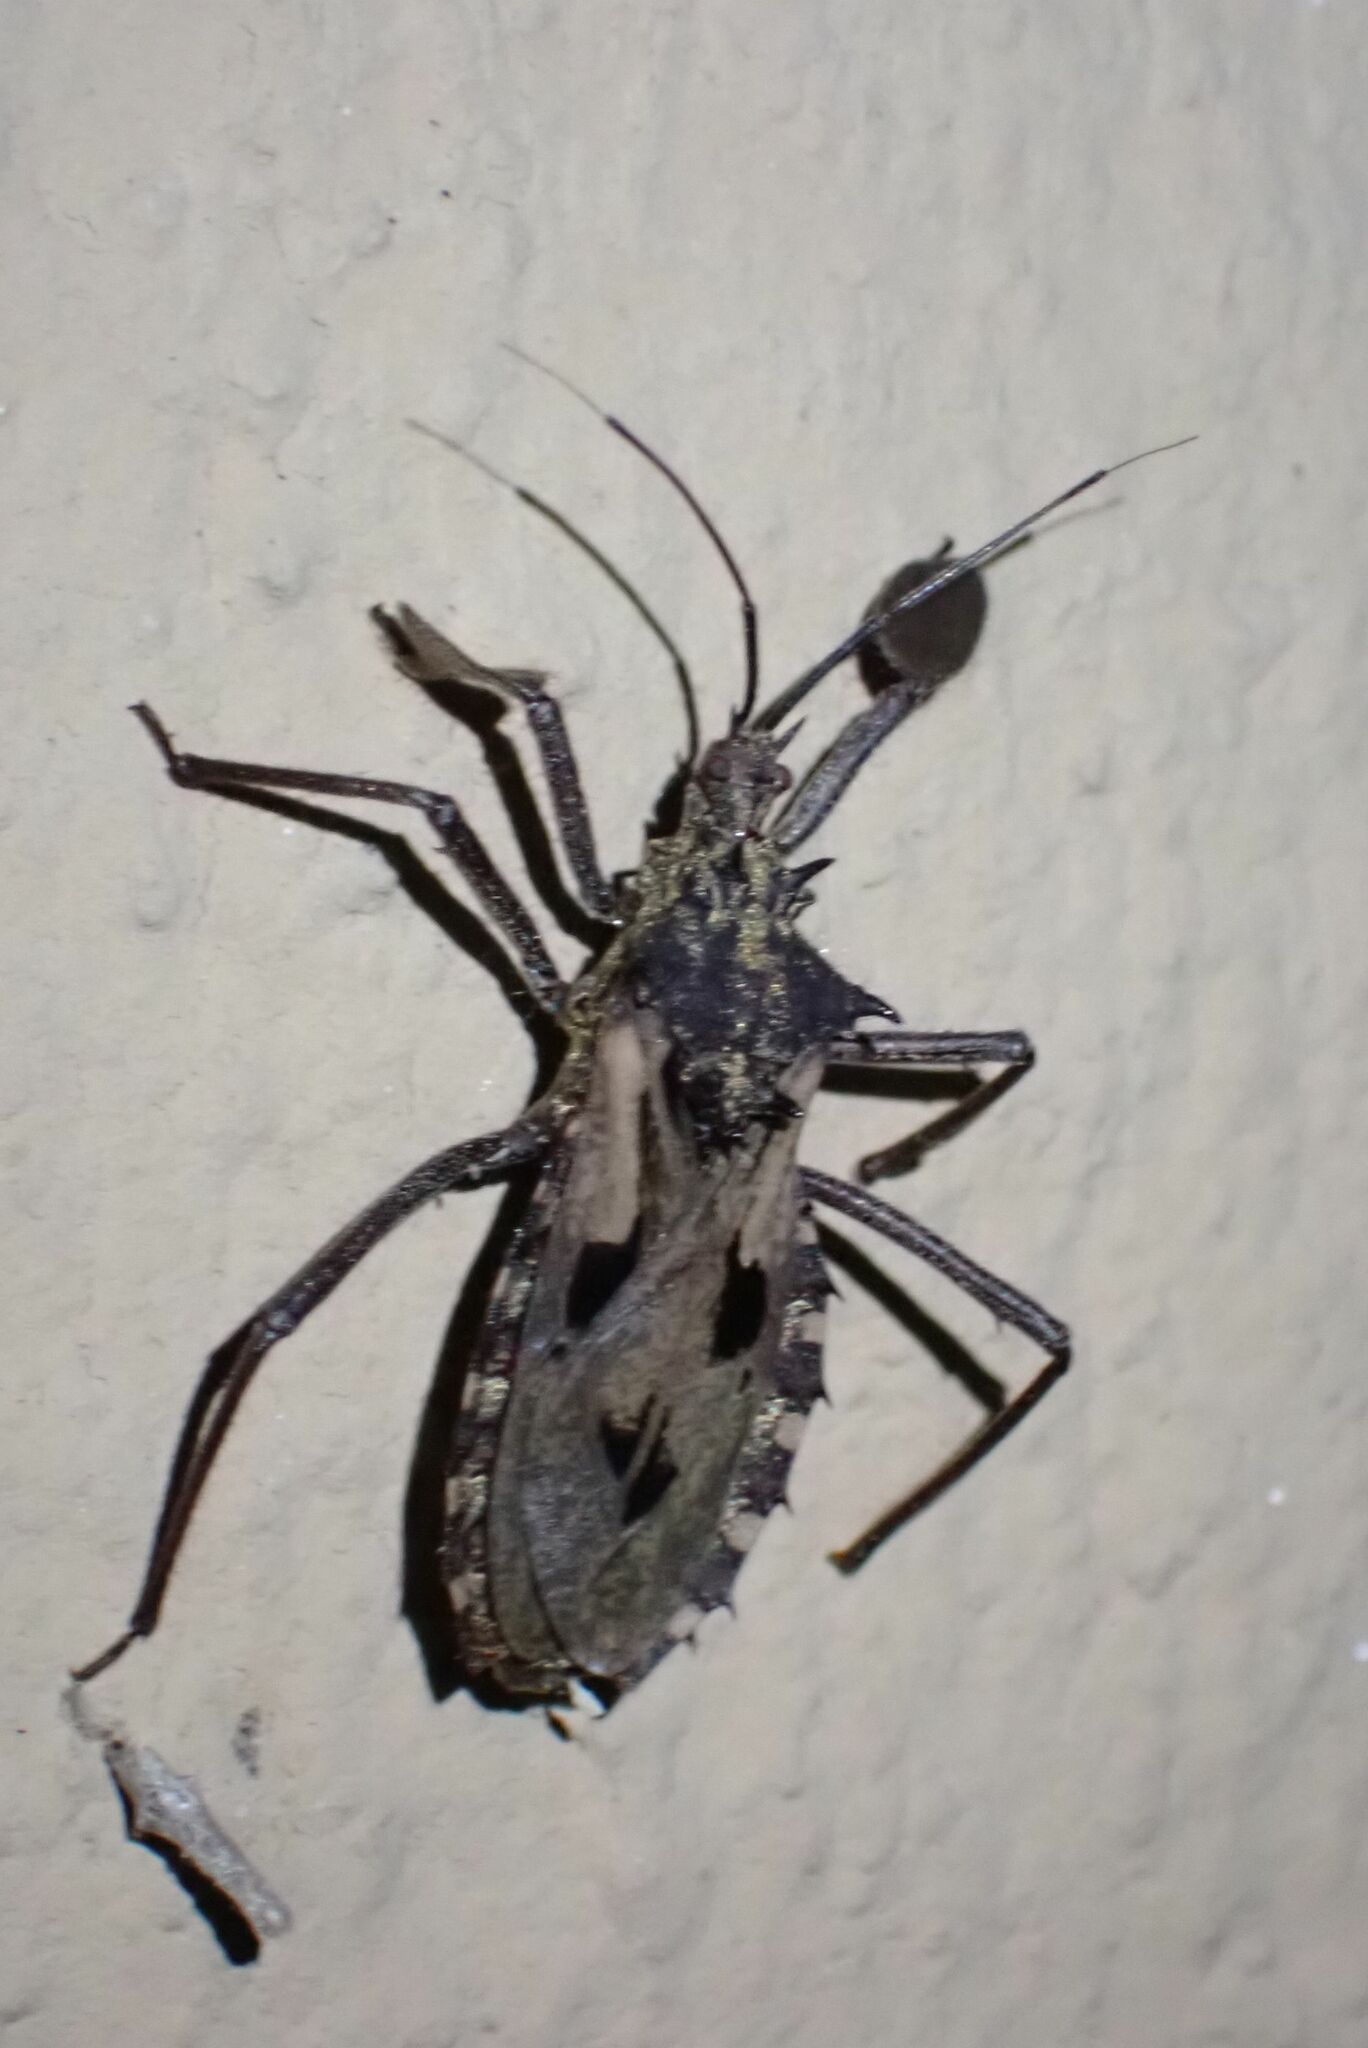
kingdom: Animalia
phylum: Arthropoda
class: Insecta
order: Hemiptera
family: Reduviidae
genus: Platychiria
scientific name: Platychiria umbrosa
